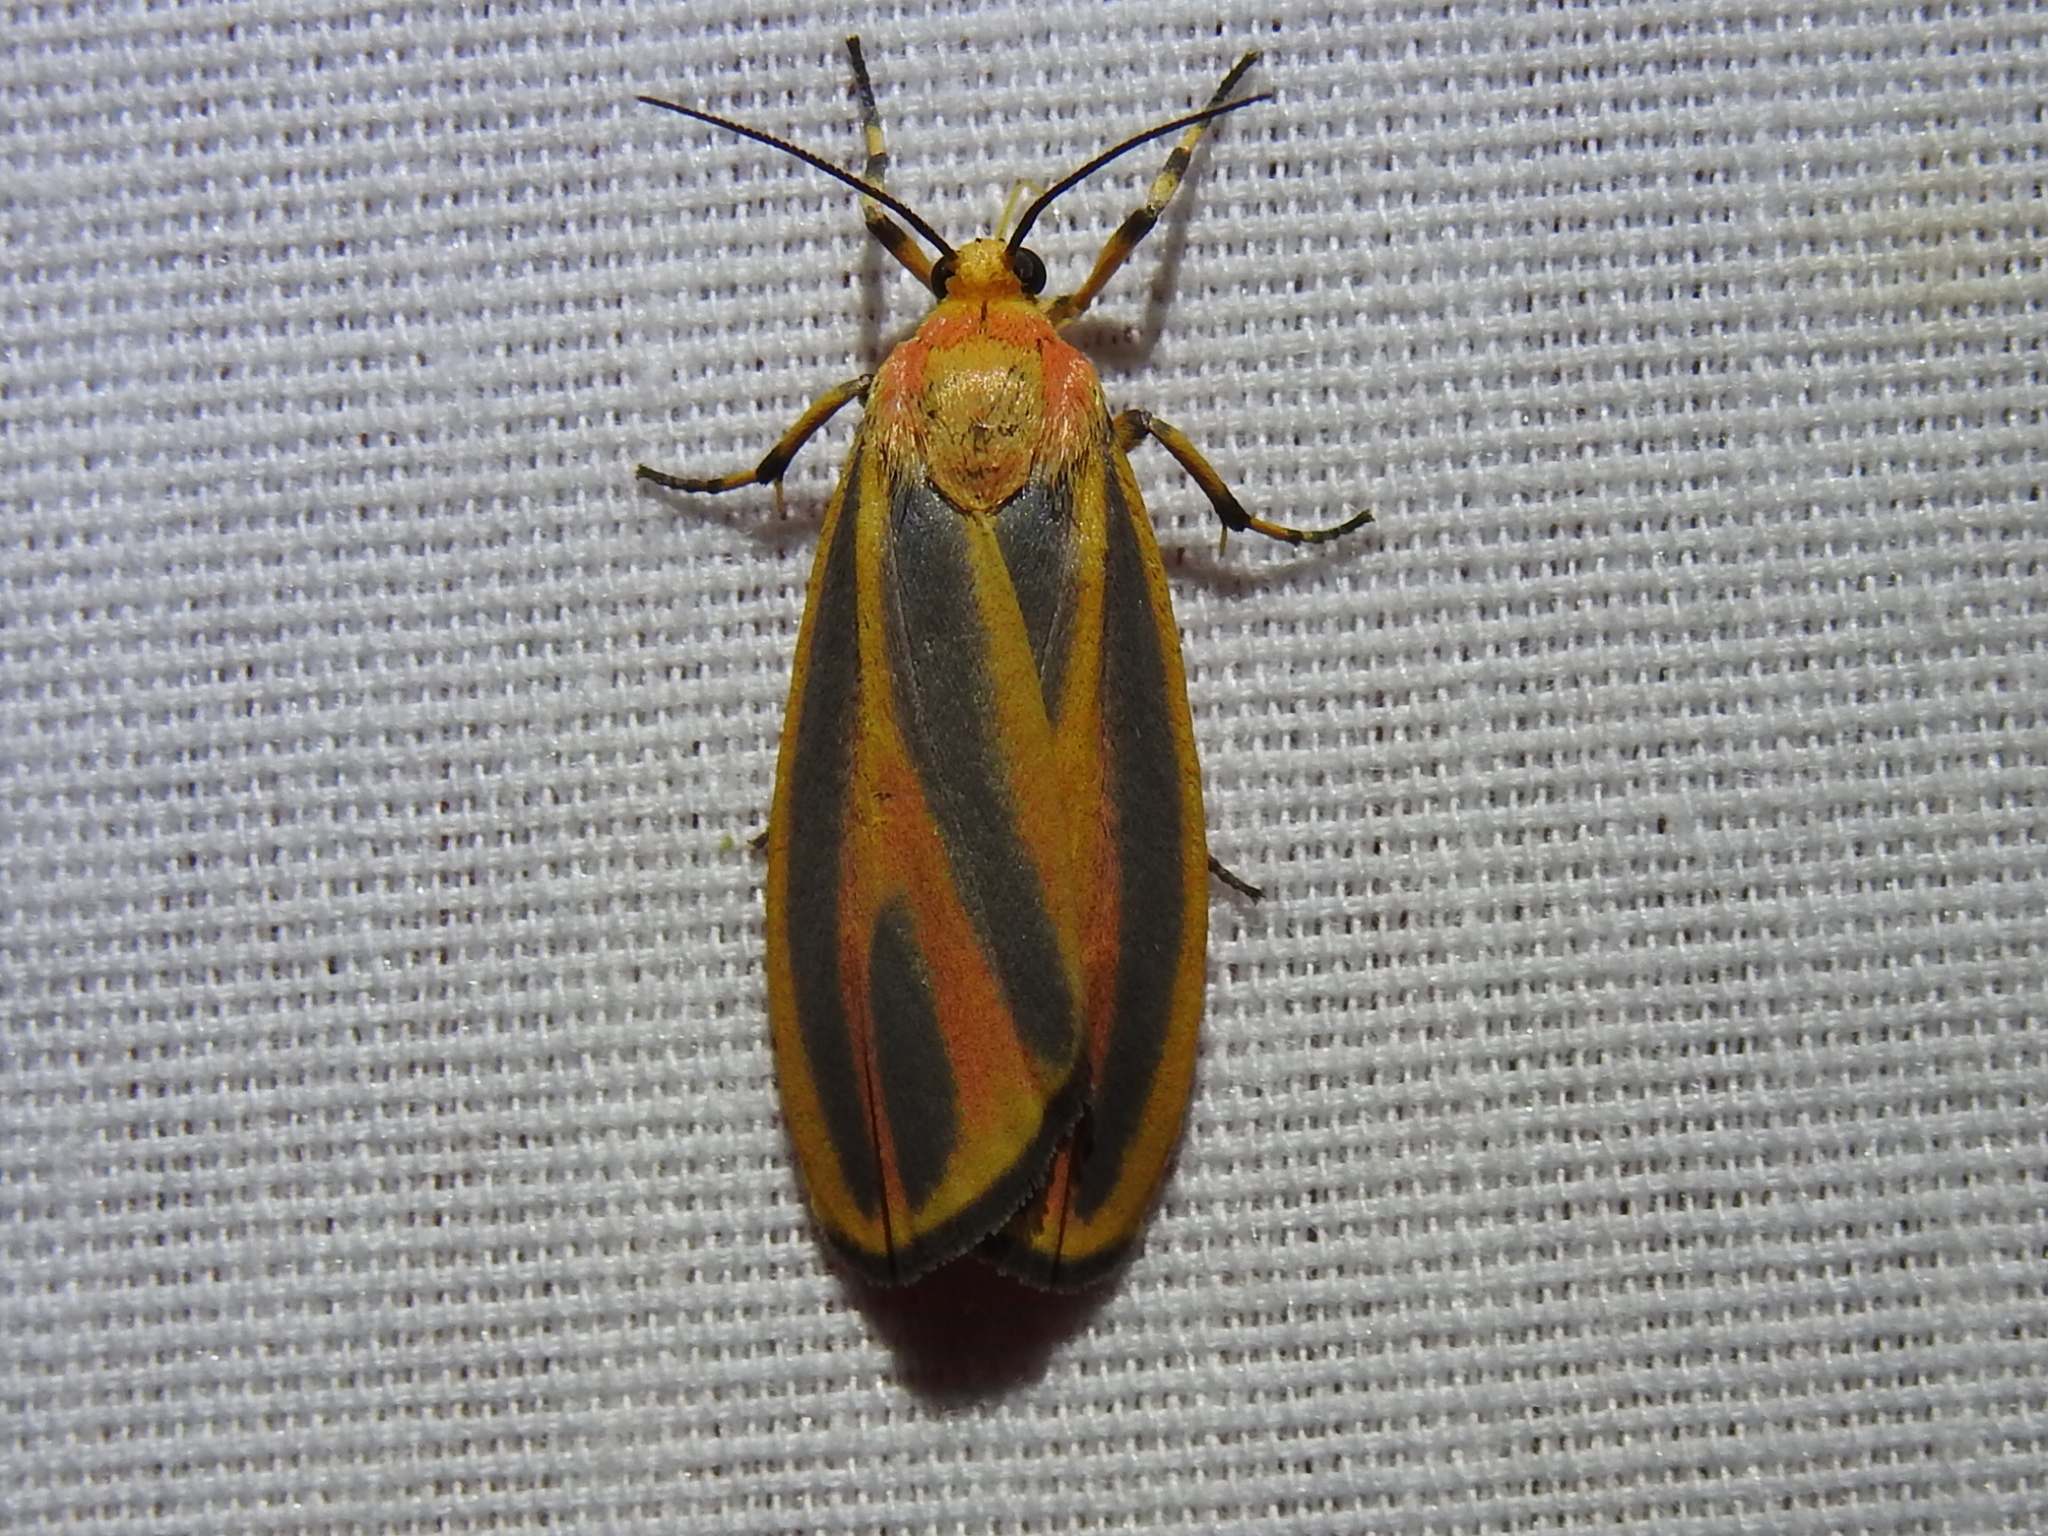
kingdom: Animalia
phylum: Arthropoda
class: Insecta
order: Lepidoptera
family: Erebidae
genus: Hypoprepia
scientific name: Hypoprepia fucosa
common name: Painted lichen moth
